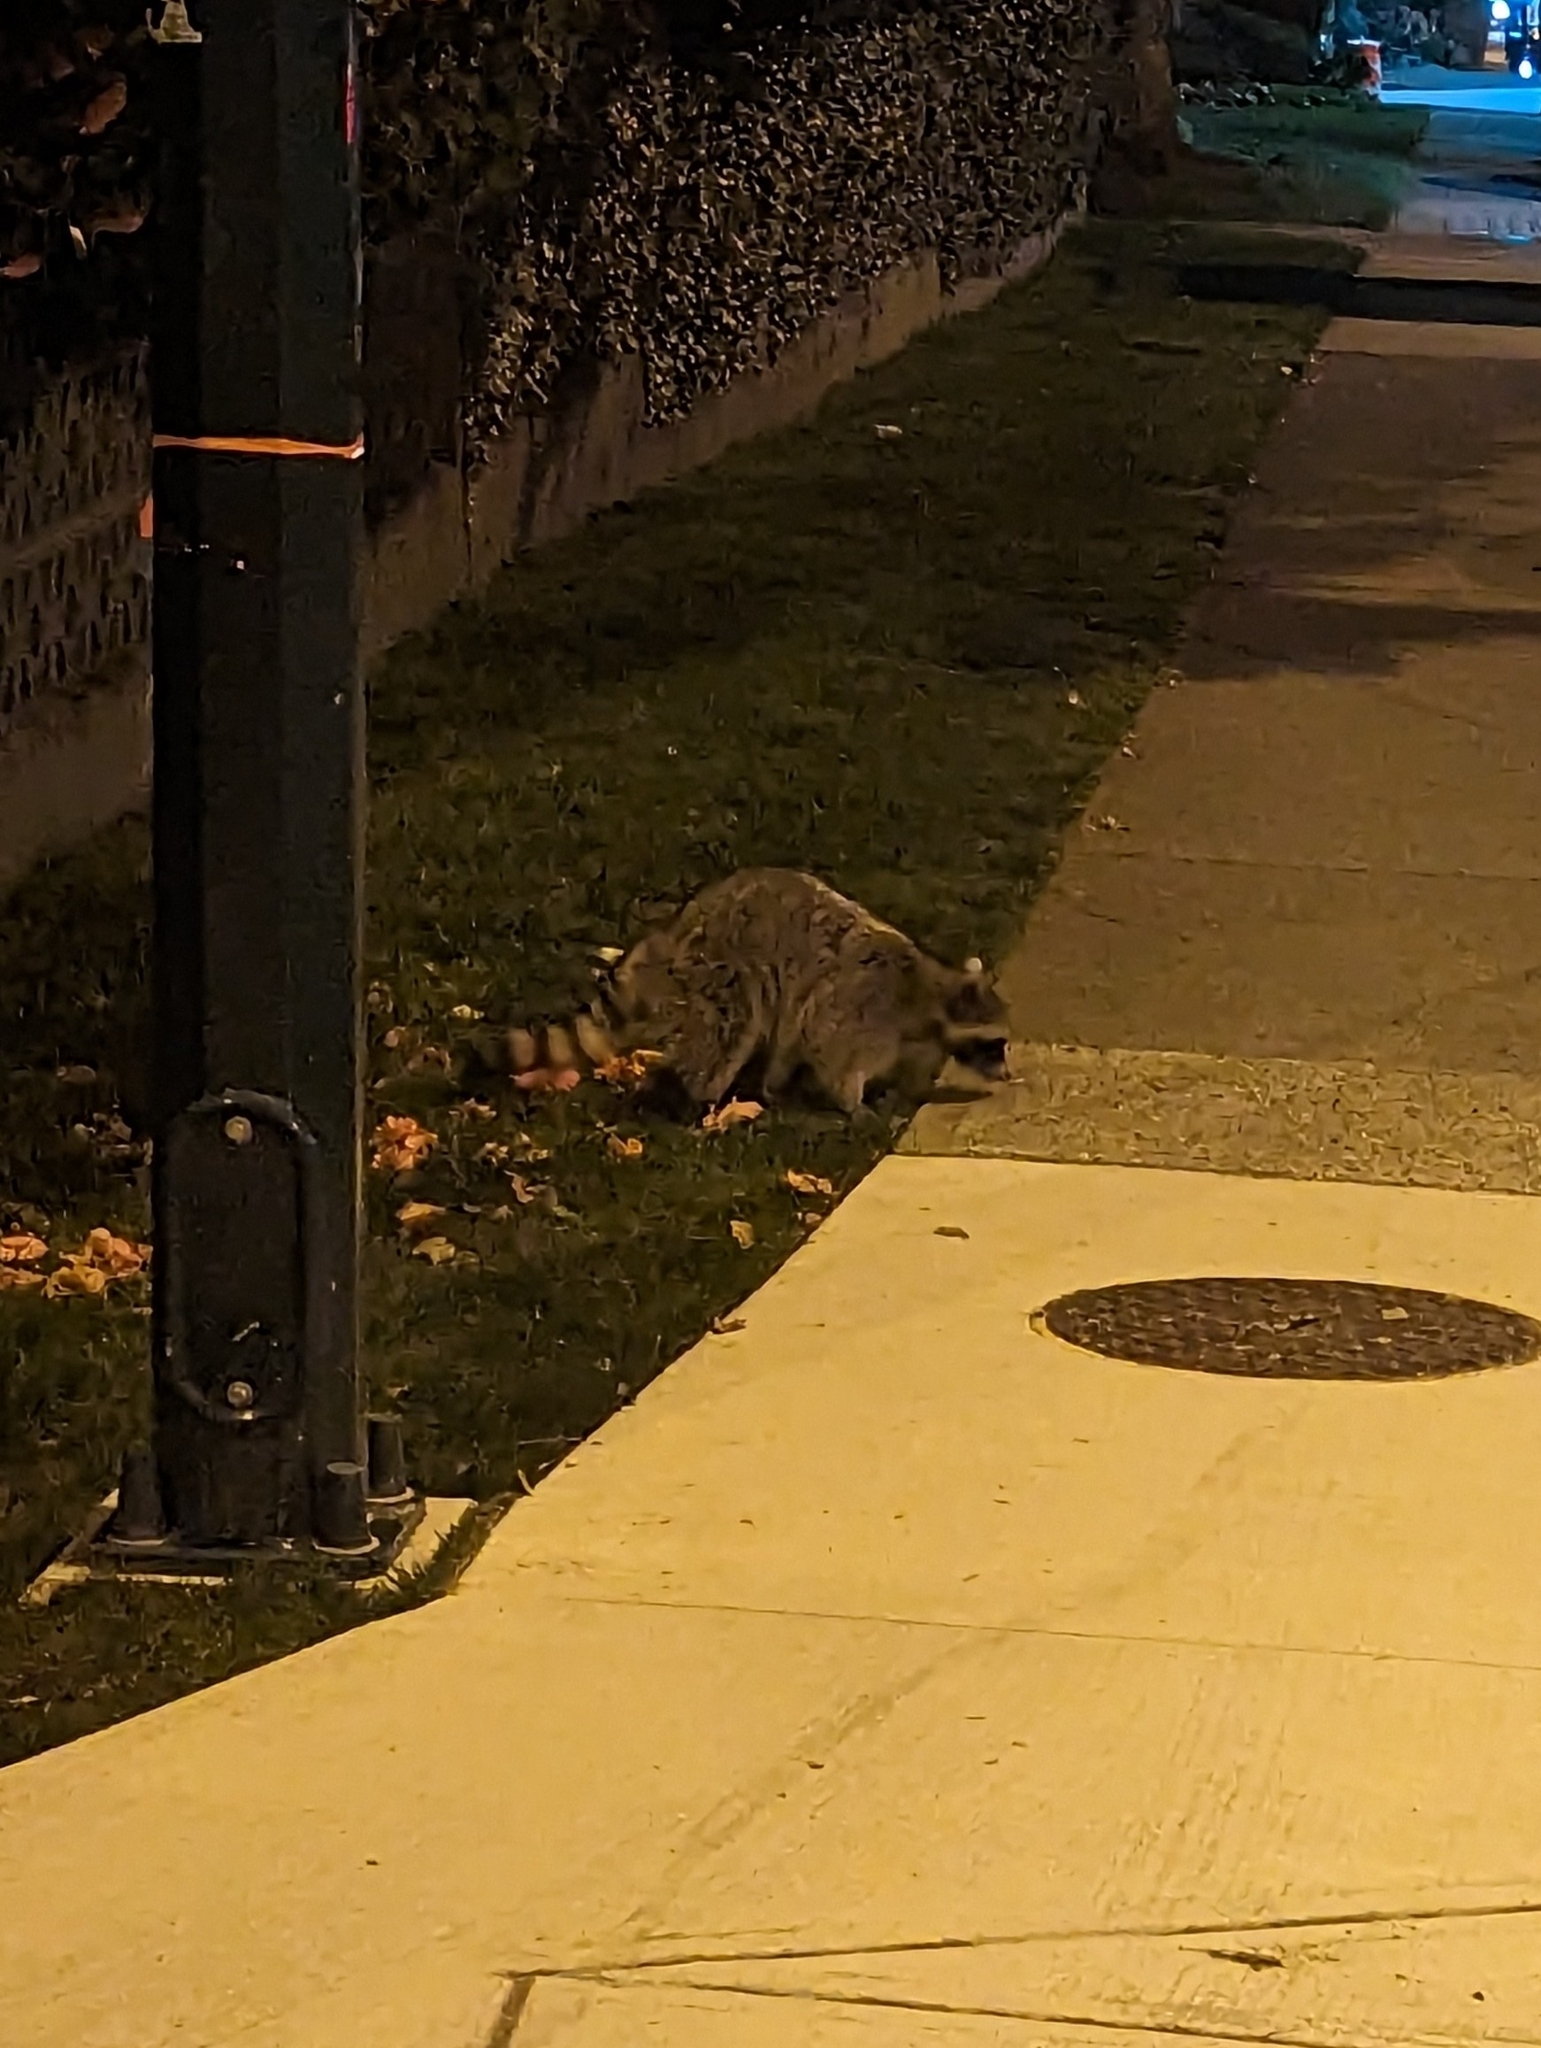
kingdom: Animalia
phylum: Chordata
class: Mammalia
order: Carnivora
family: Procyonidae
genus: Procyon
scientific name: Procyon lotor
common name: Raccoon
